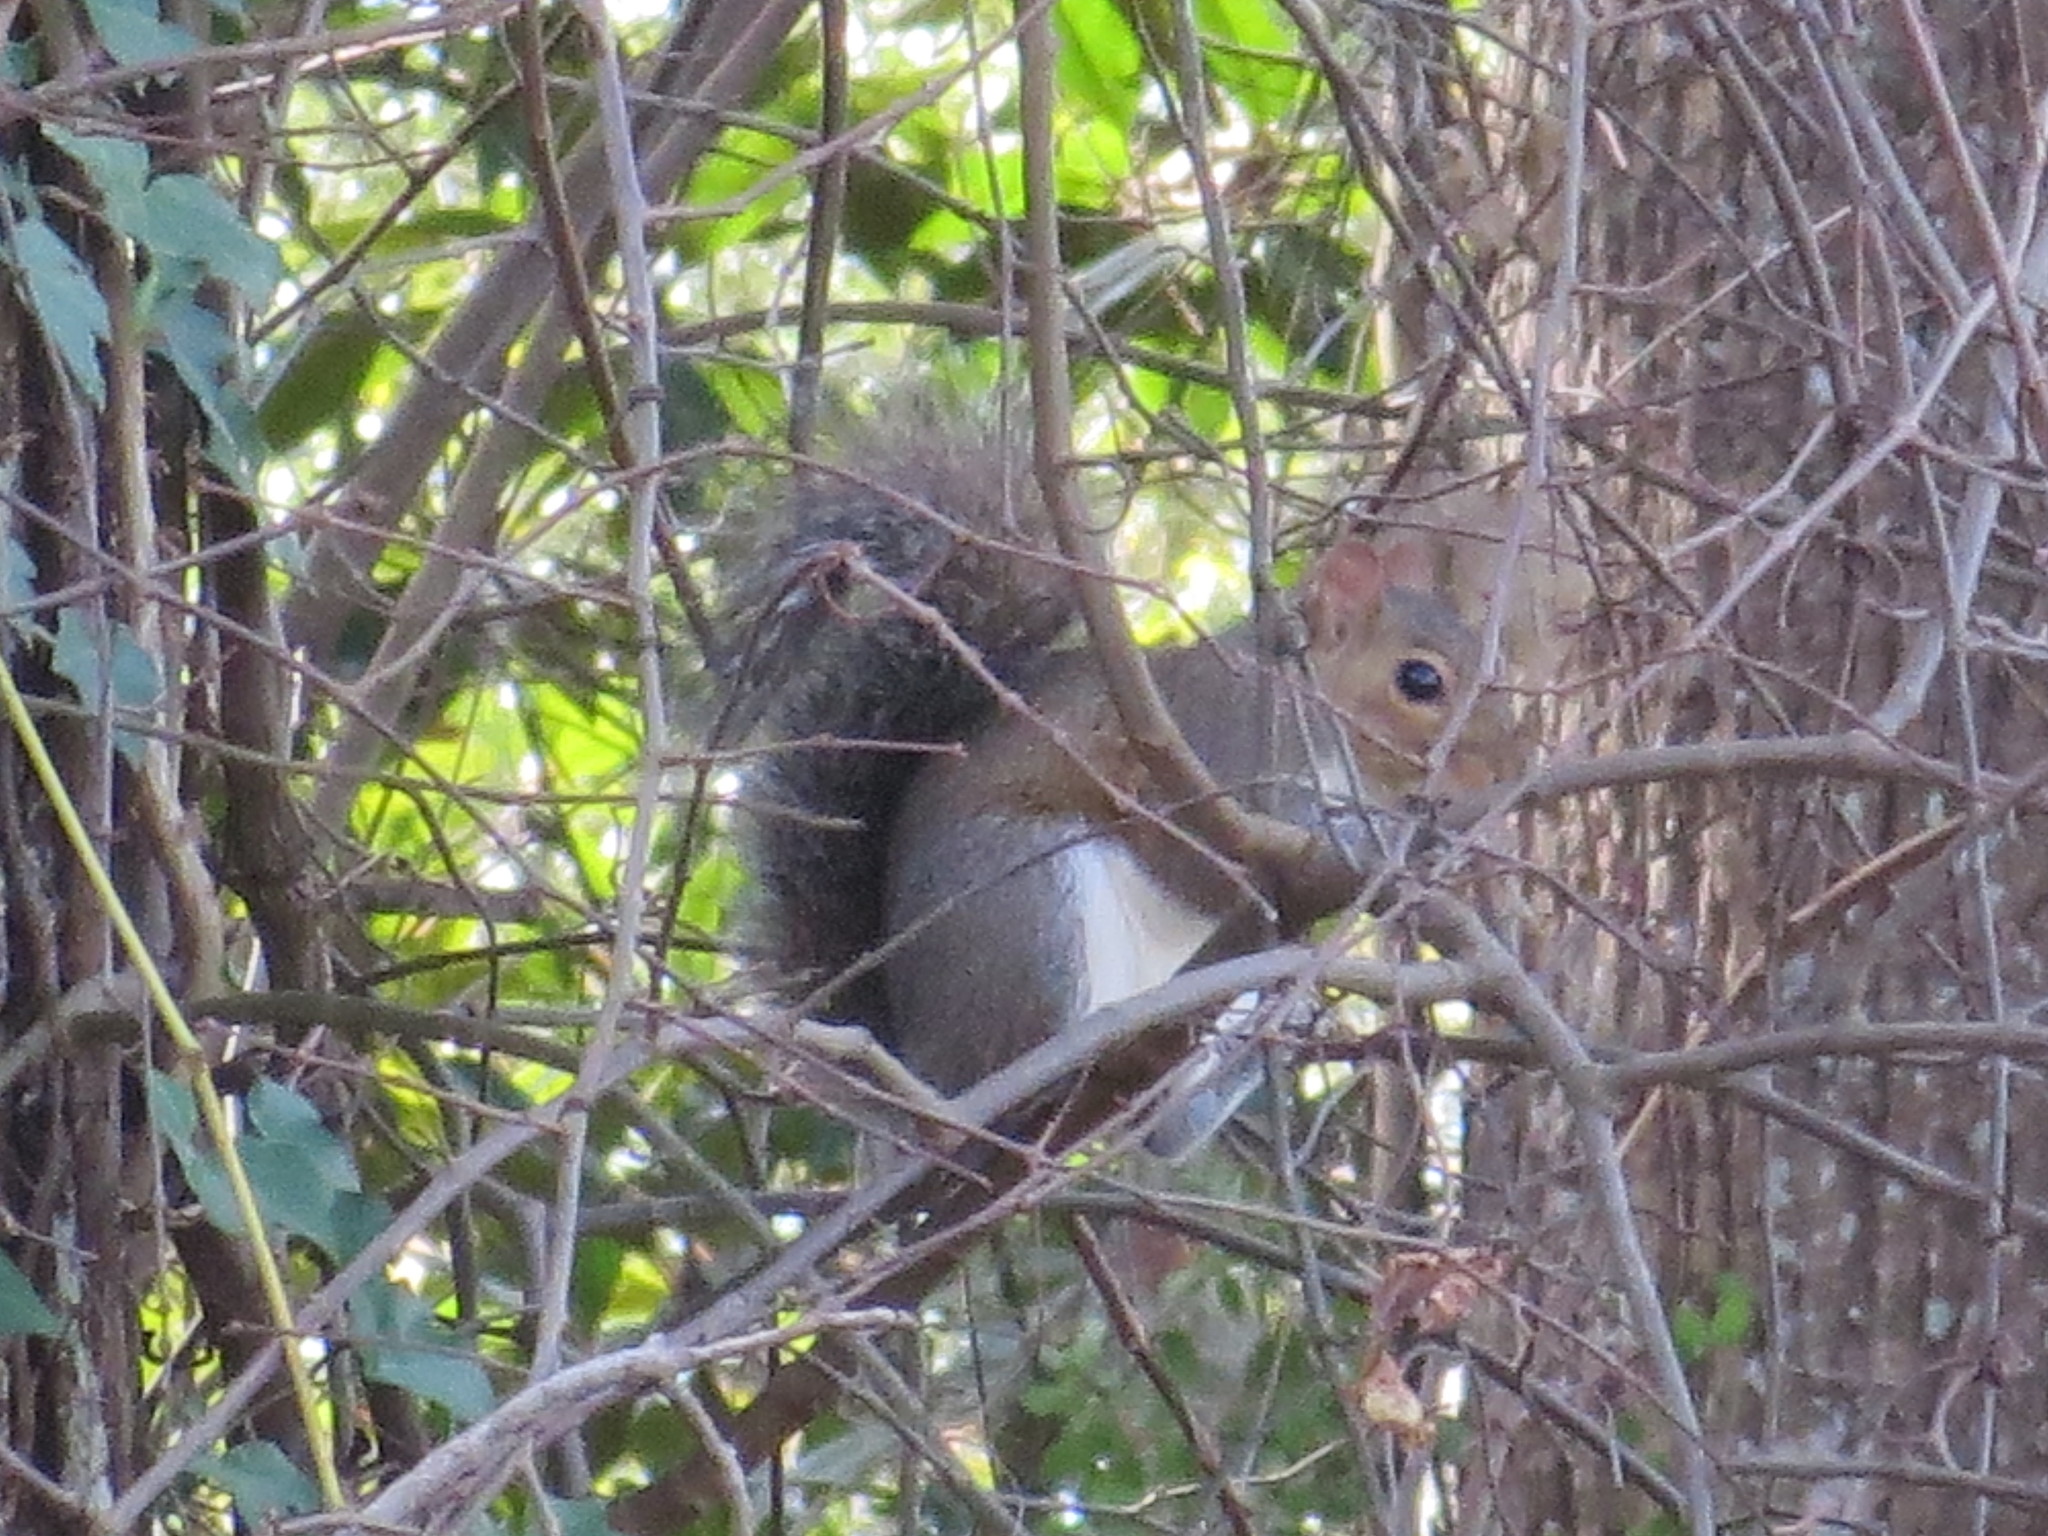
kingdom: Animalia
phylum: Chordata
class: Mammalia
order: Rodentia
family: Sciuridae
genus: Sciurus
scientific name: Sciurus carolinensis
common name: Eastern gray squirrel
